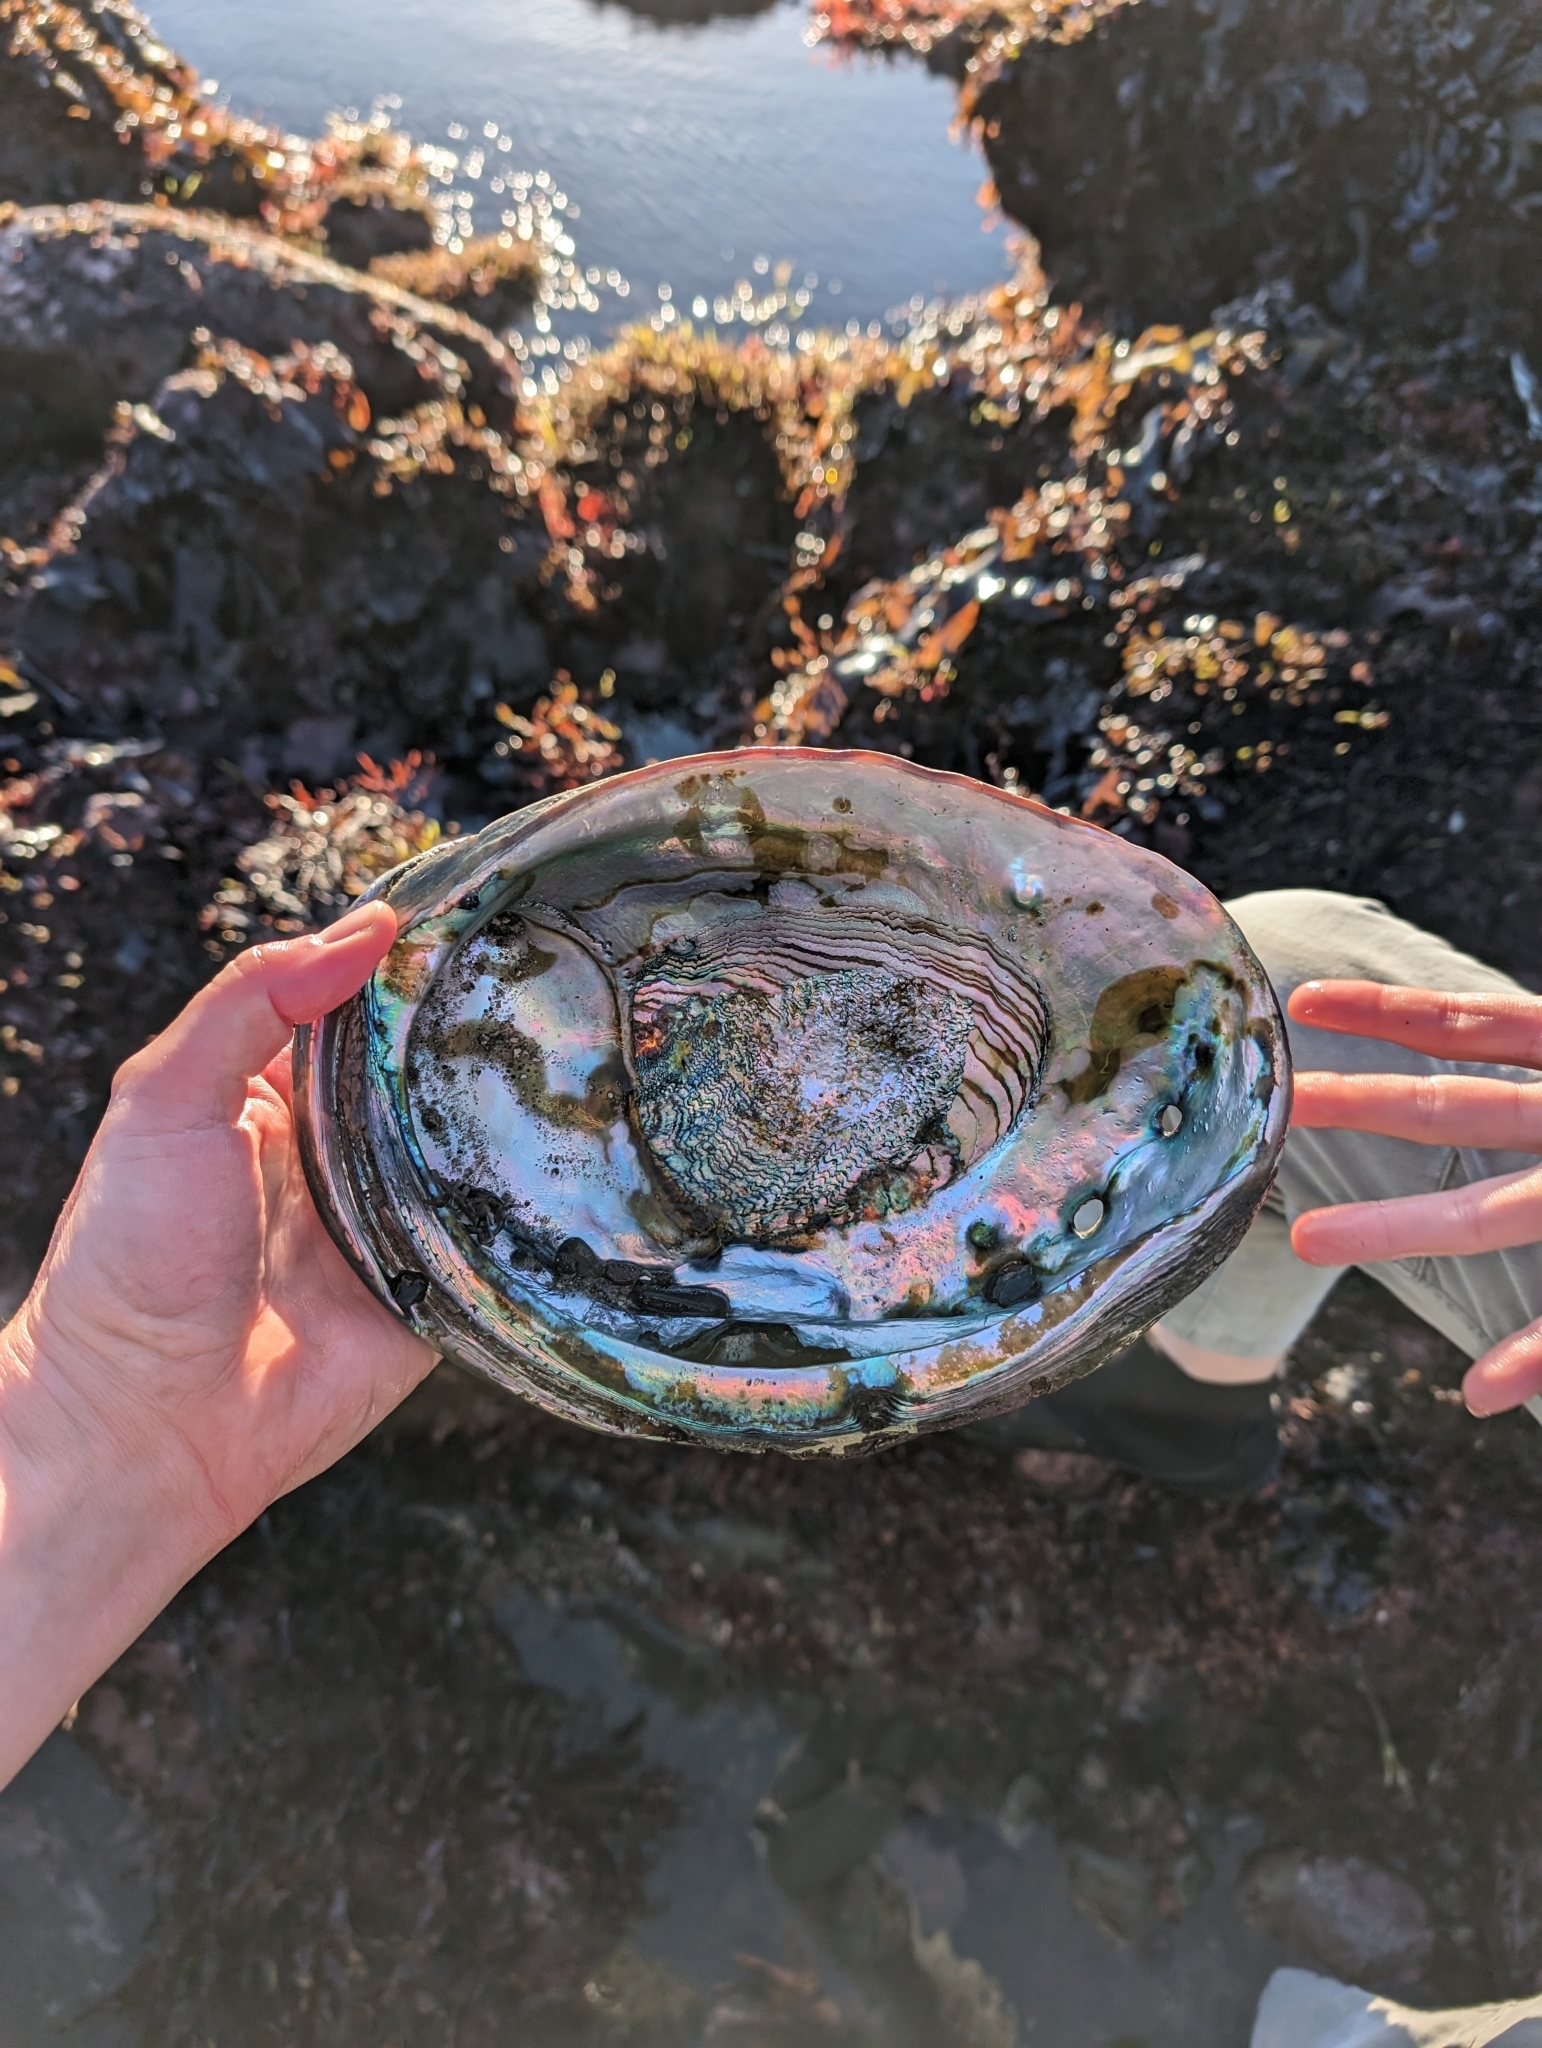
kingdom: Animalia
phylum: Mollusca
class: Gastropoda
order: Lepetellida
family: Haliotidae
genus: Haliotis
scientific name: Haliotis rufescens
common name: Red abalone
